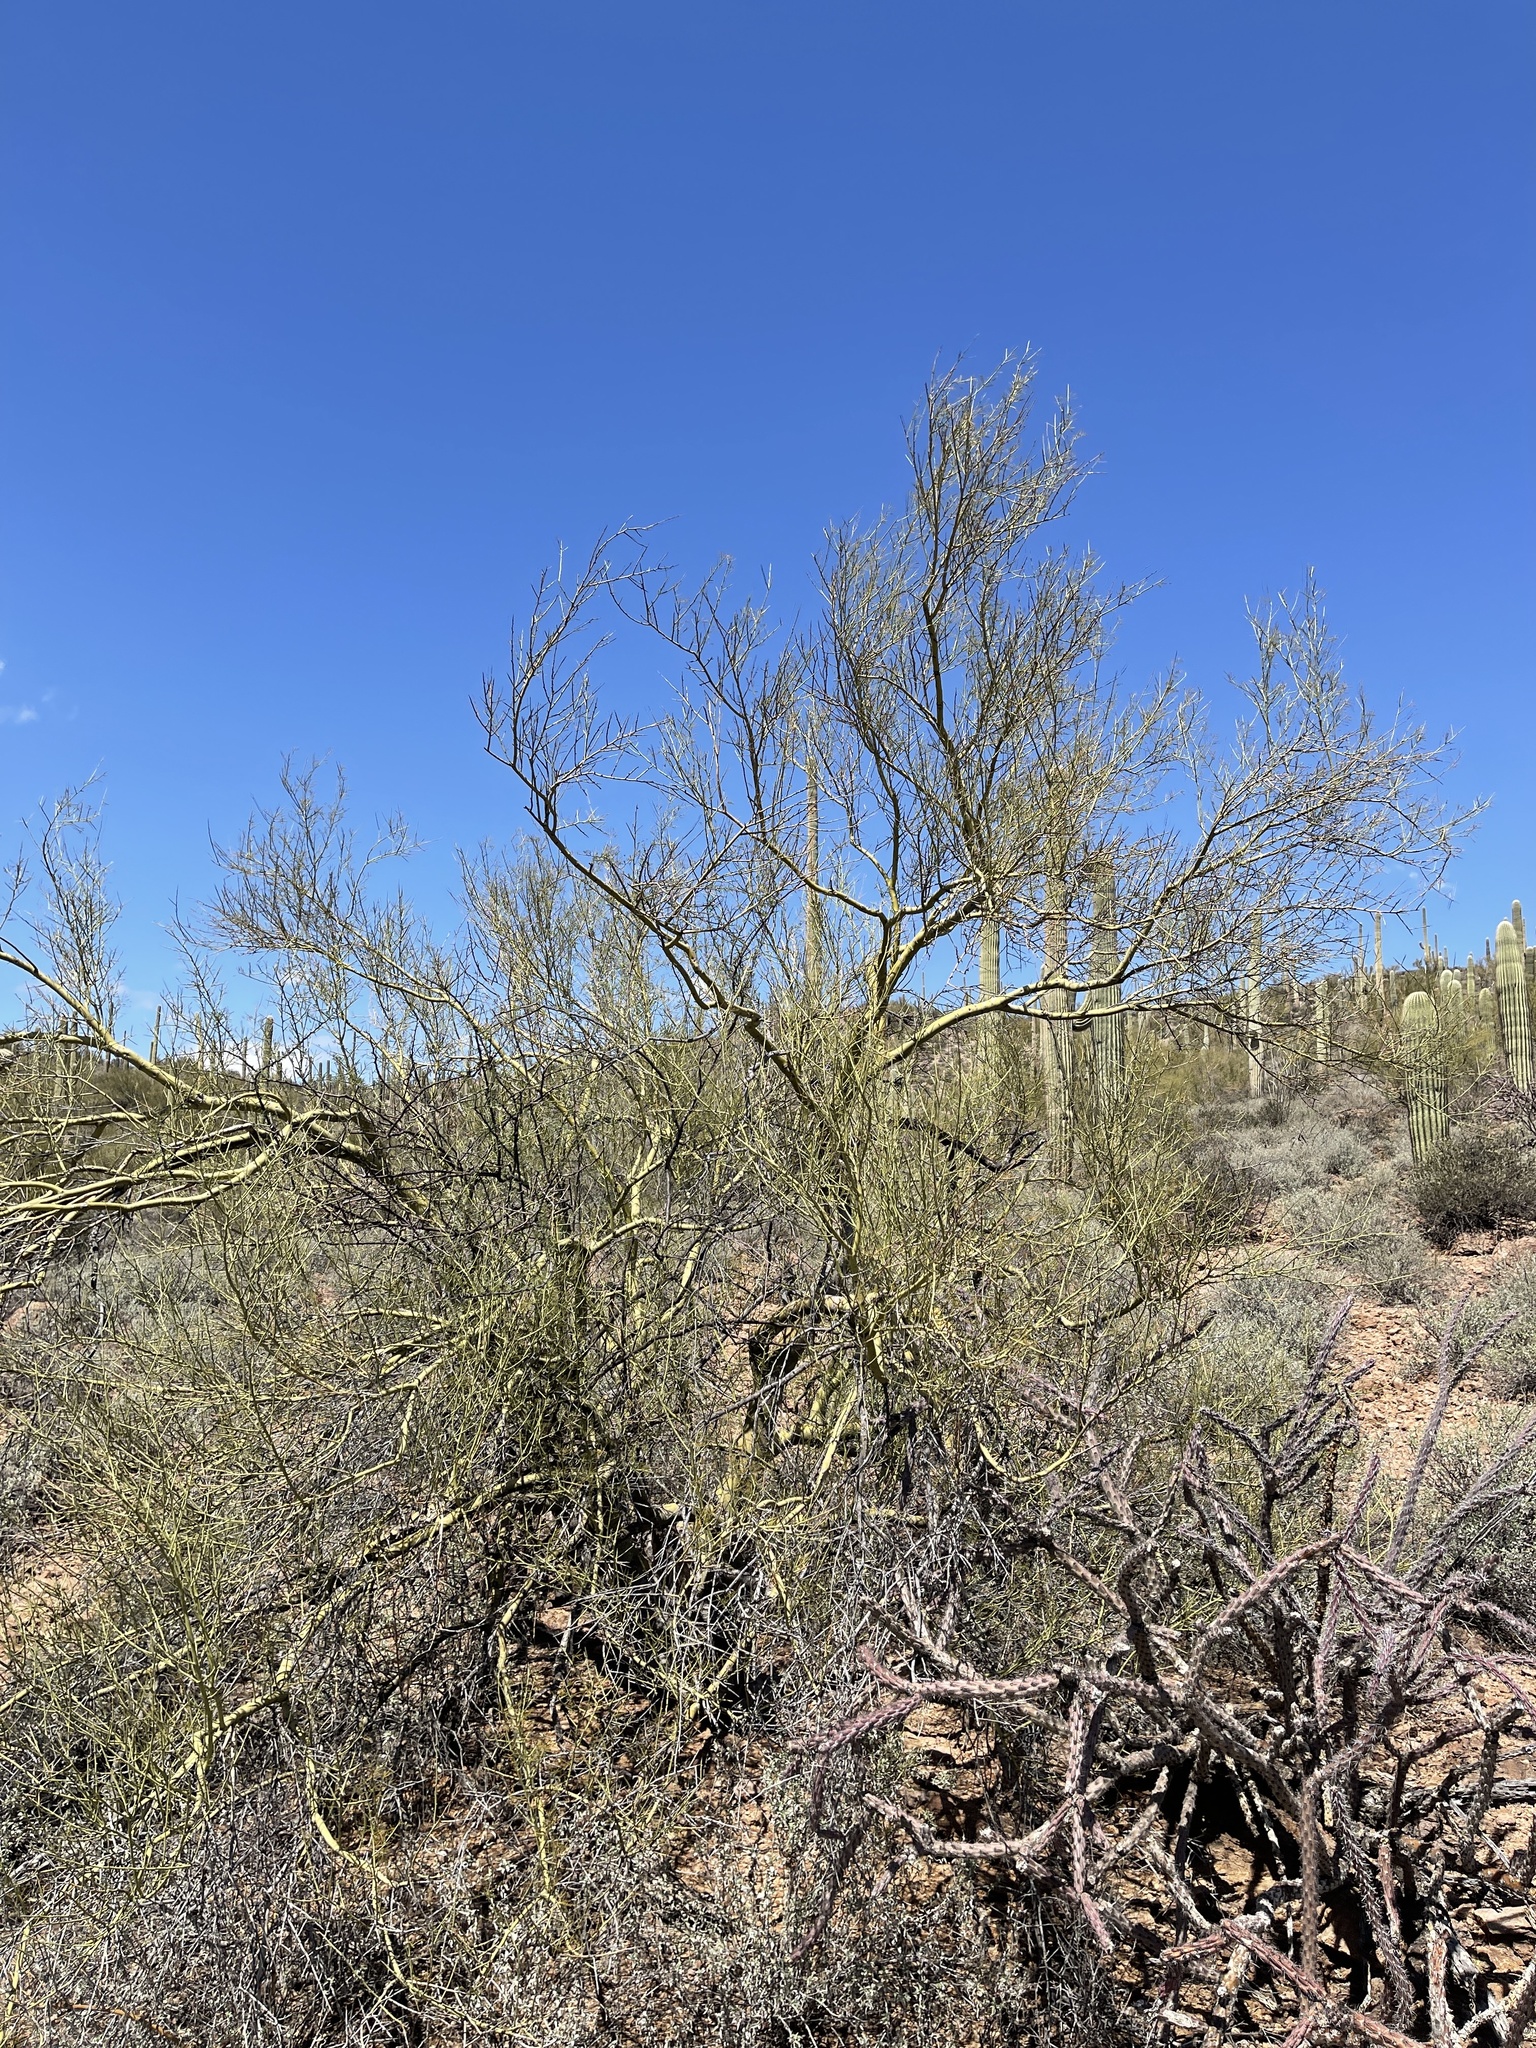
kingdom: Plantae
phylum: Tracheophyta
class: Magnoliopsida
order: Fabales
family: Fabaceae
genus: Parkinsonia
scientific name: Parkinsonia microphylla
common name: Yellow paloverde
